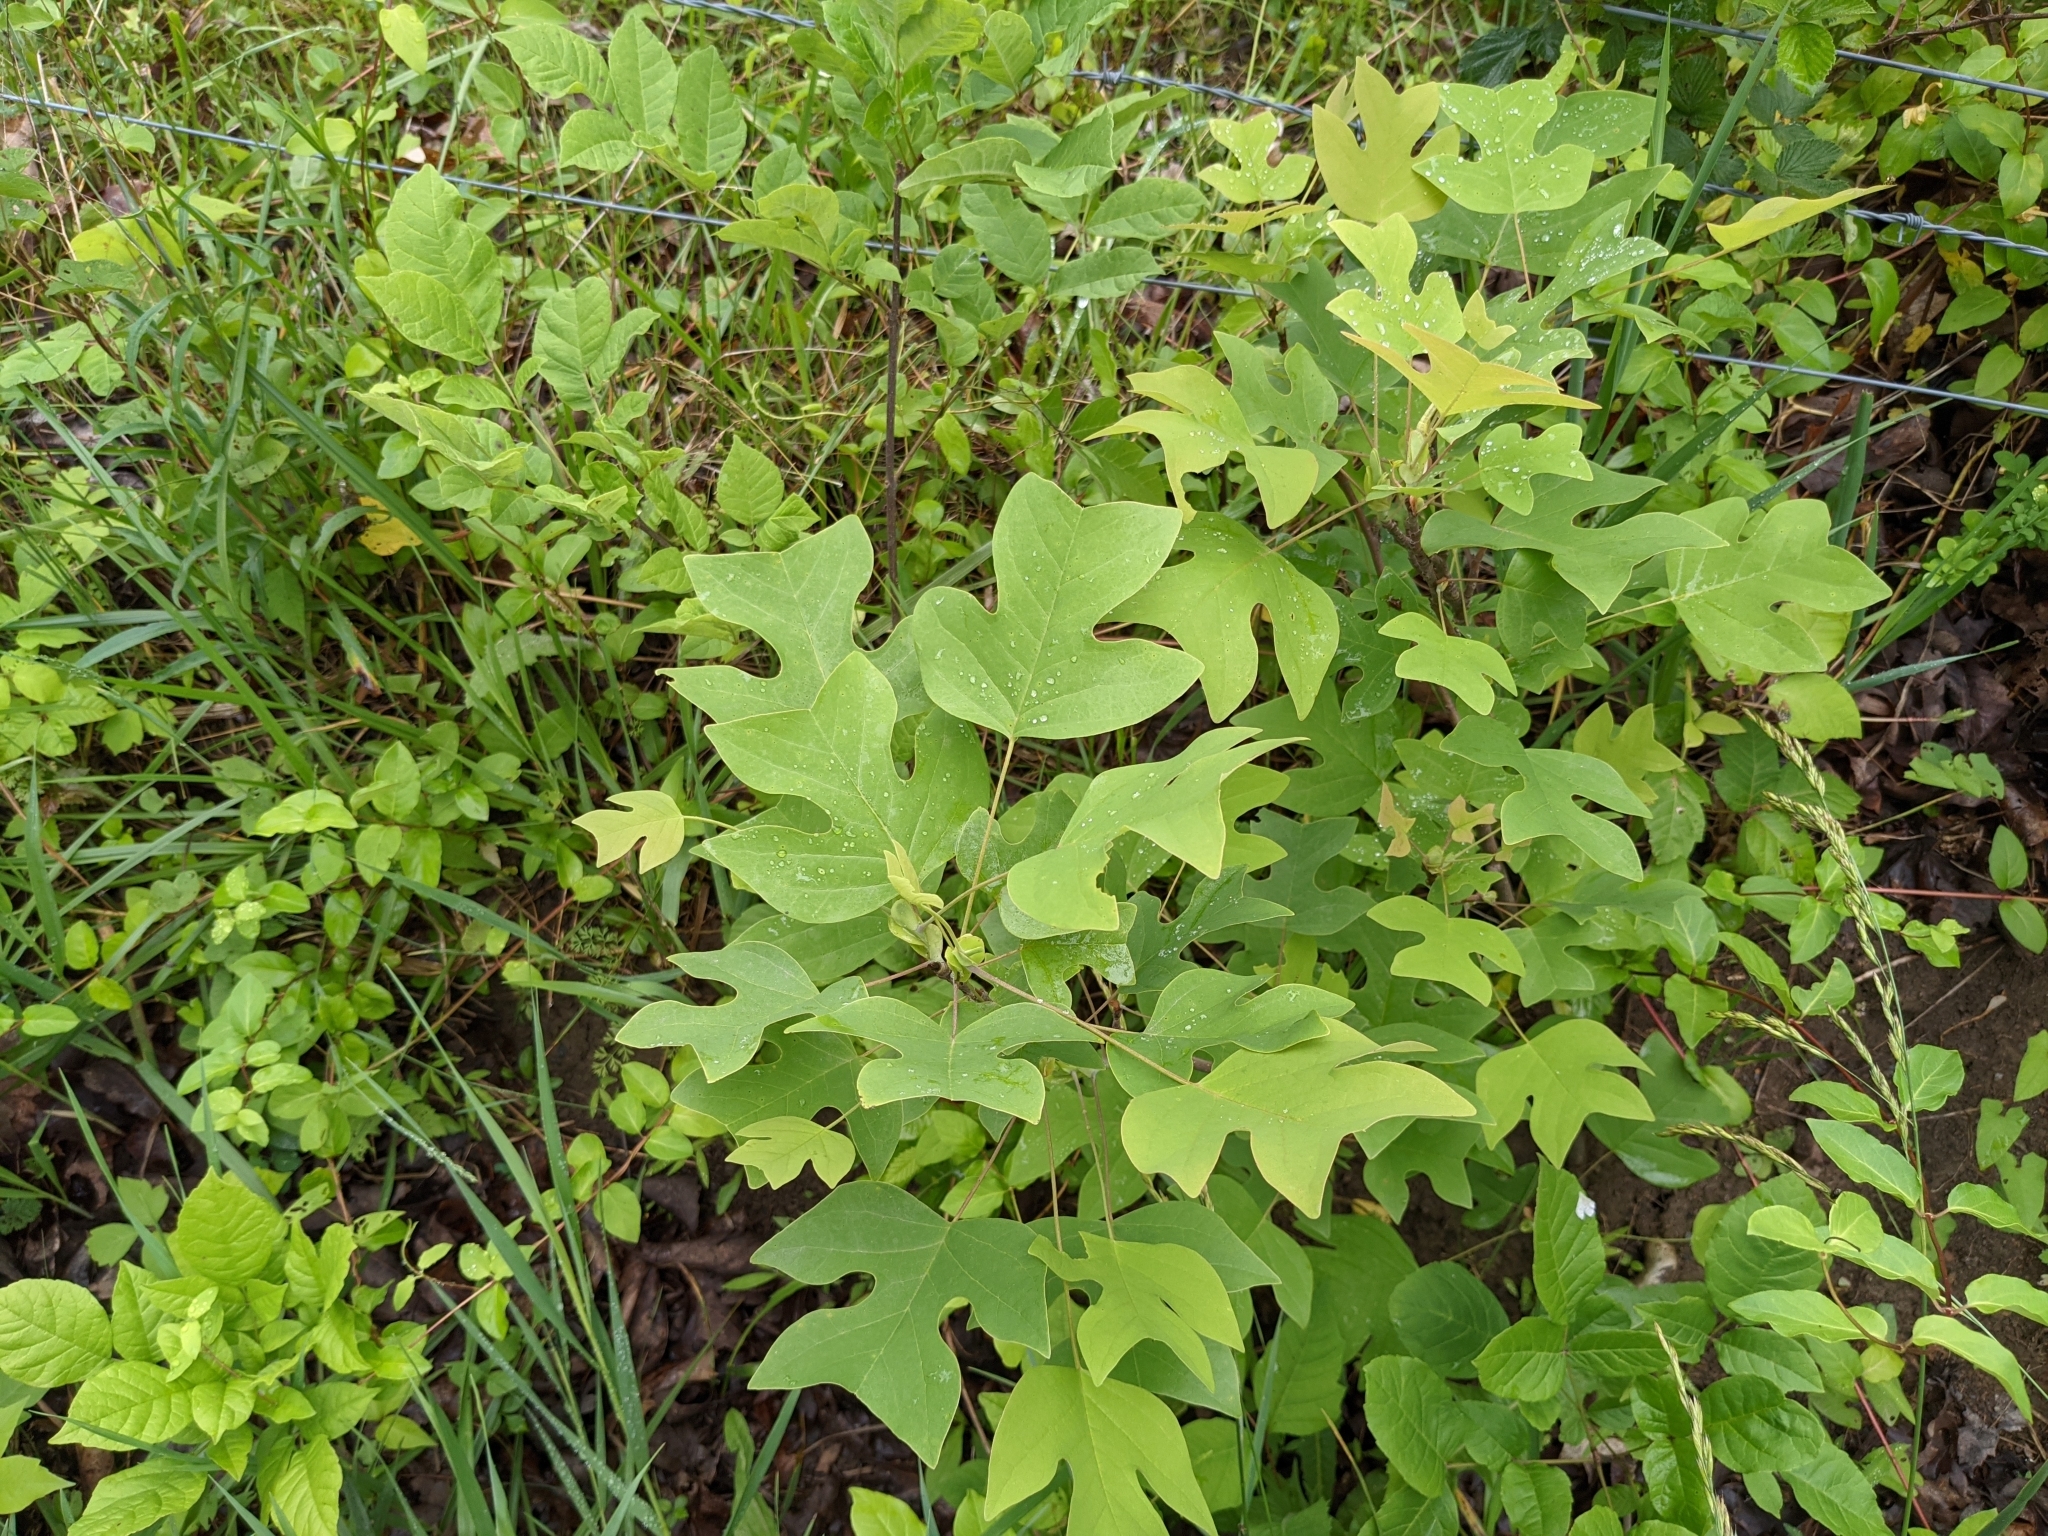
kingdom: Plantae
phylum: Tracheophyta
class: Magnoliopsida
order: Magnoliales
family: Magnoliaceae
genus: Liriodendron
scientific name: Liriodendron tulipifera
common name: Tulip tree
